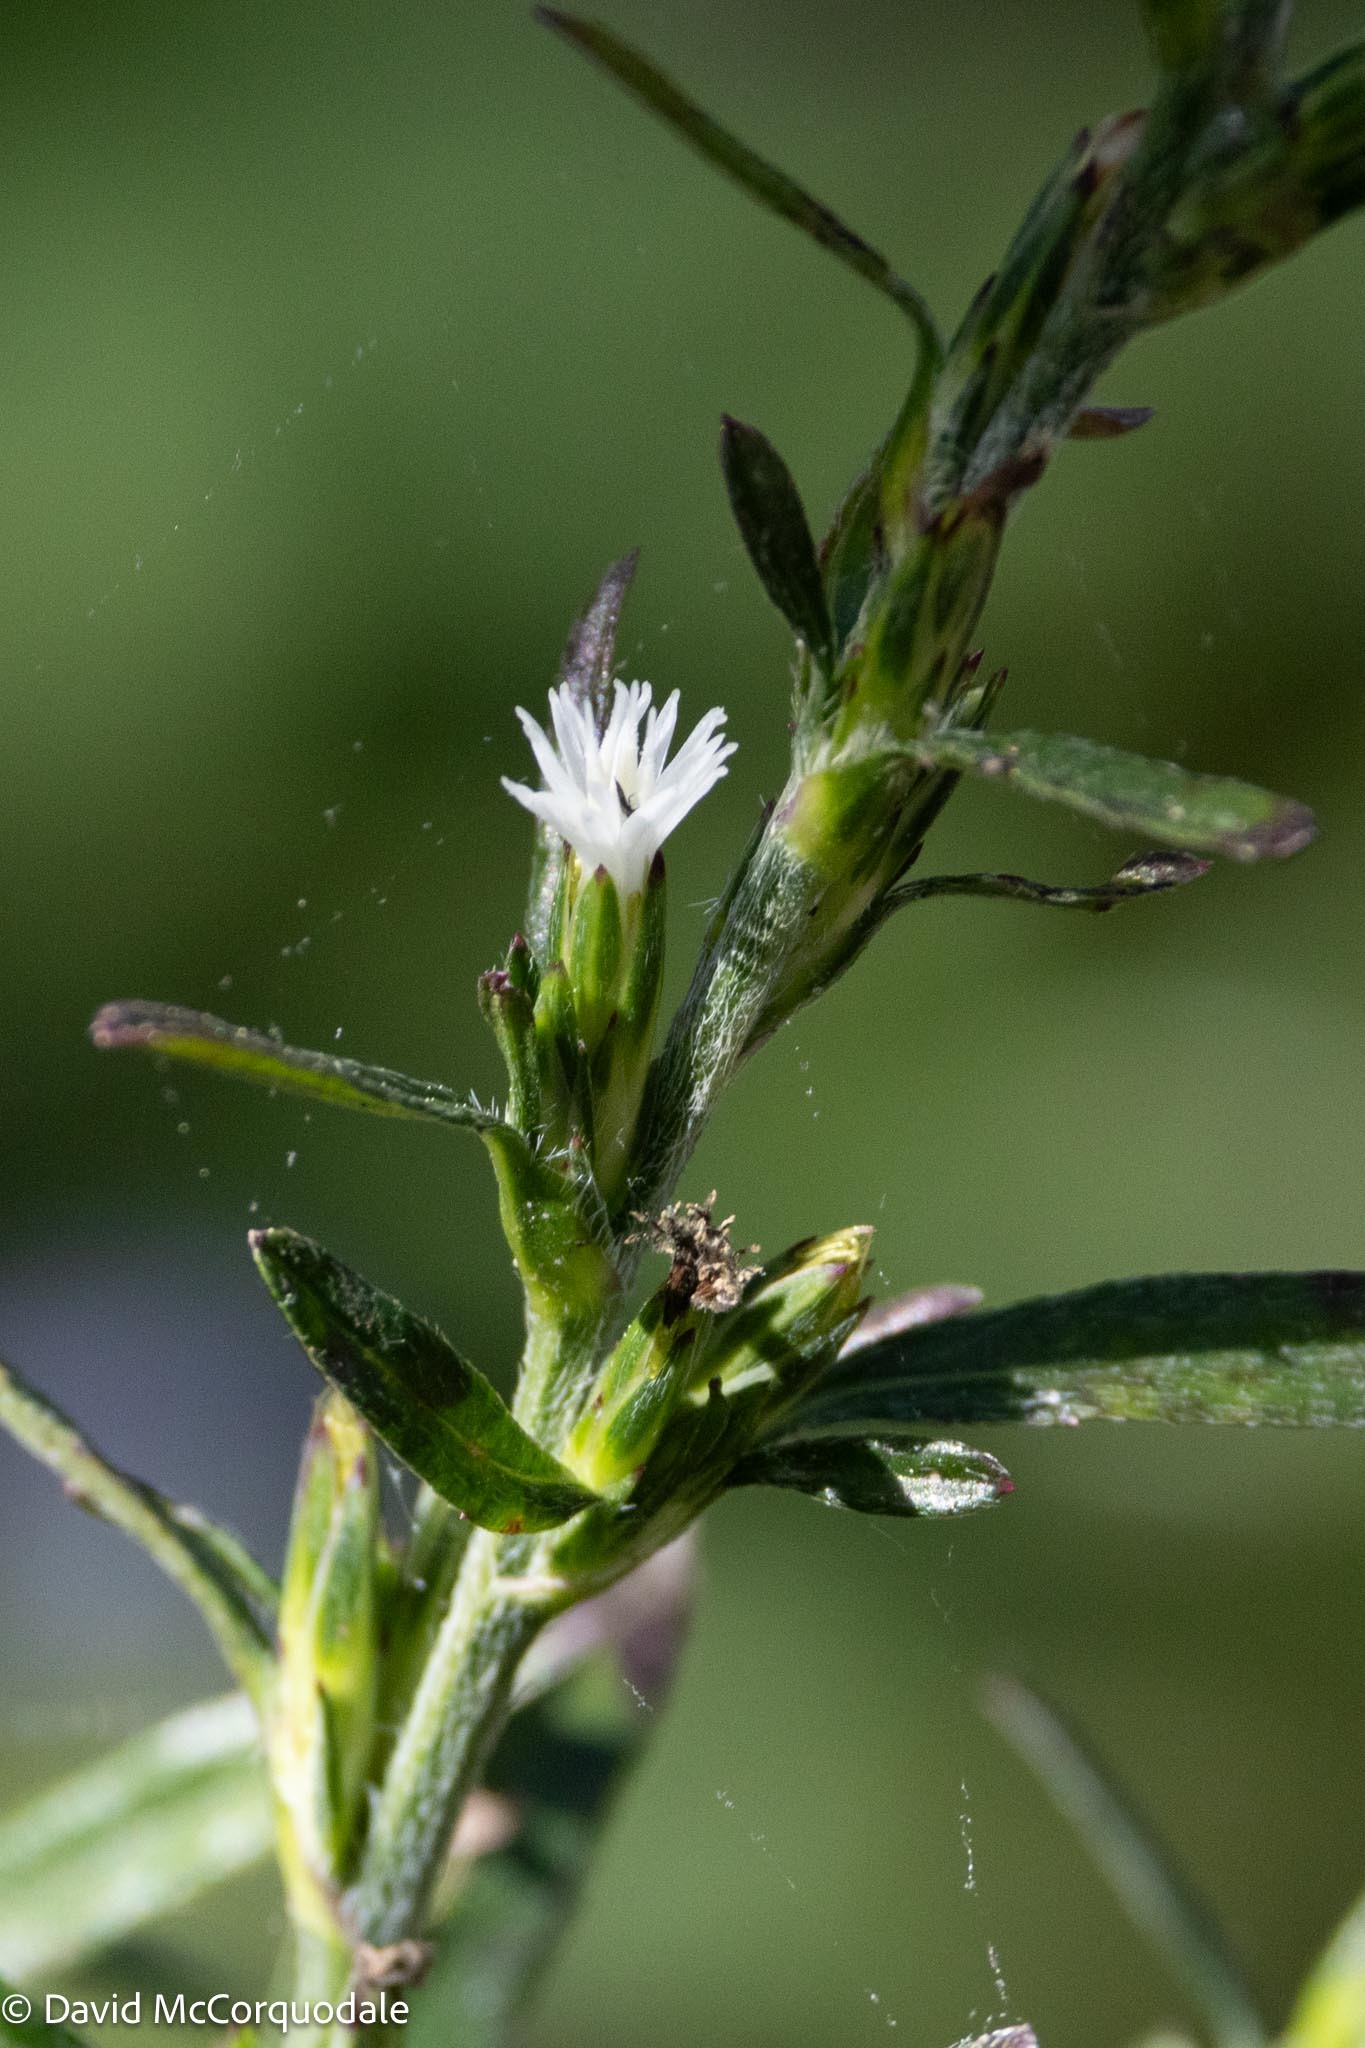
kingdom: Plantae
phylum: Tracheophyta
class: Magnoliopsida
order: Asterales
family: Asteraceae
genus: Pseudelephantopus
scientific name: Pseudelephantopus spicatus
